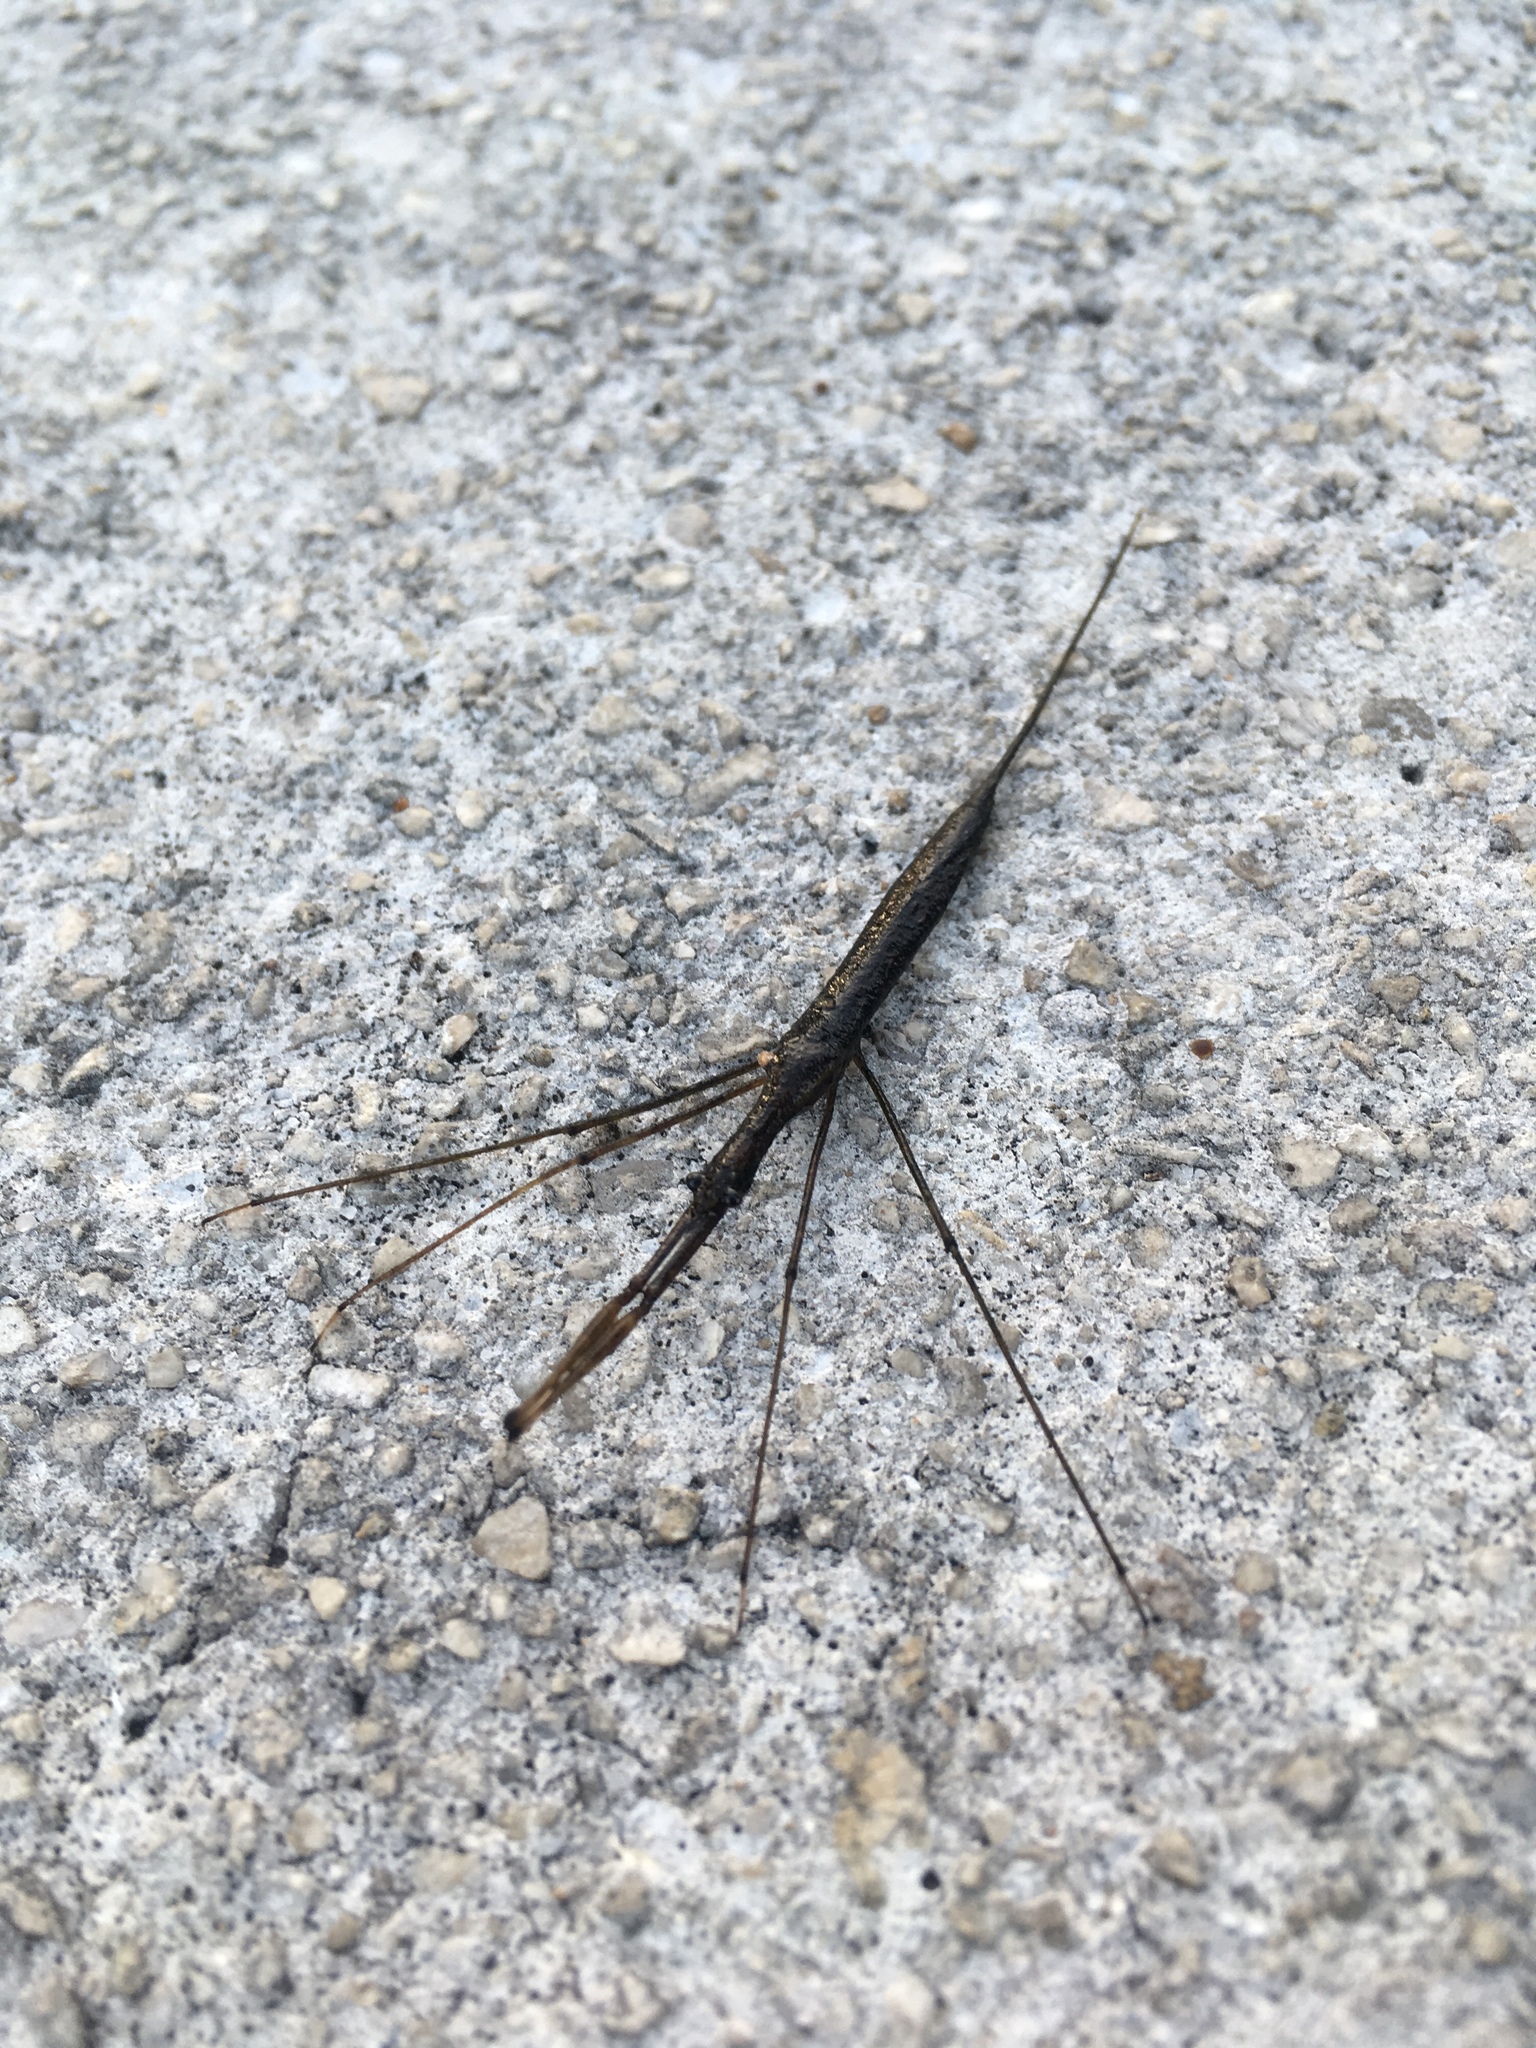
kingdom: Animalia
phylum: Arthropoda
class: Insecta
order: Hemiptera
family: Nepidae
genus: Ranatra
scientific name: Ranatra
